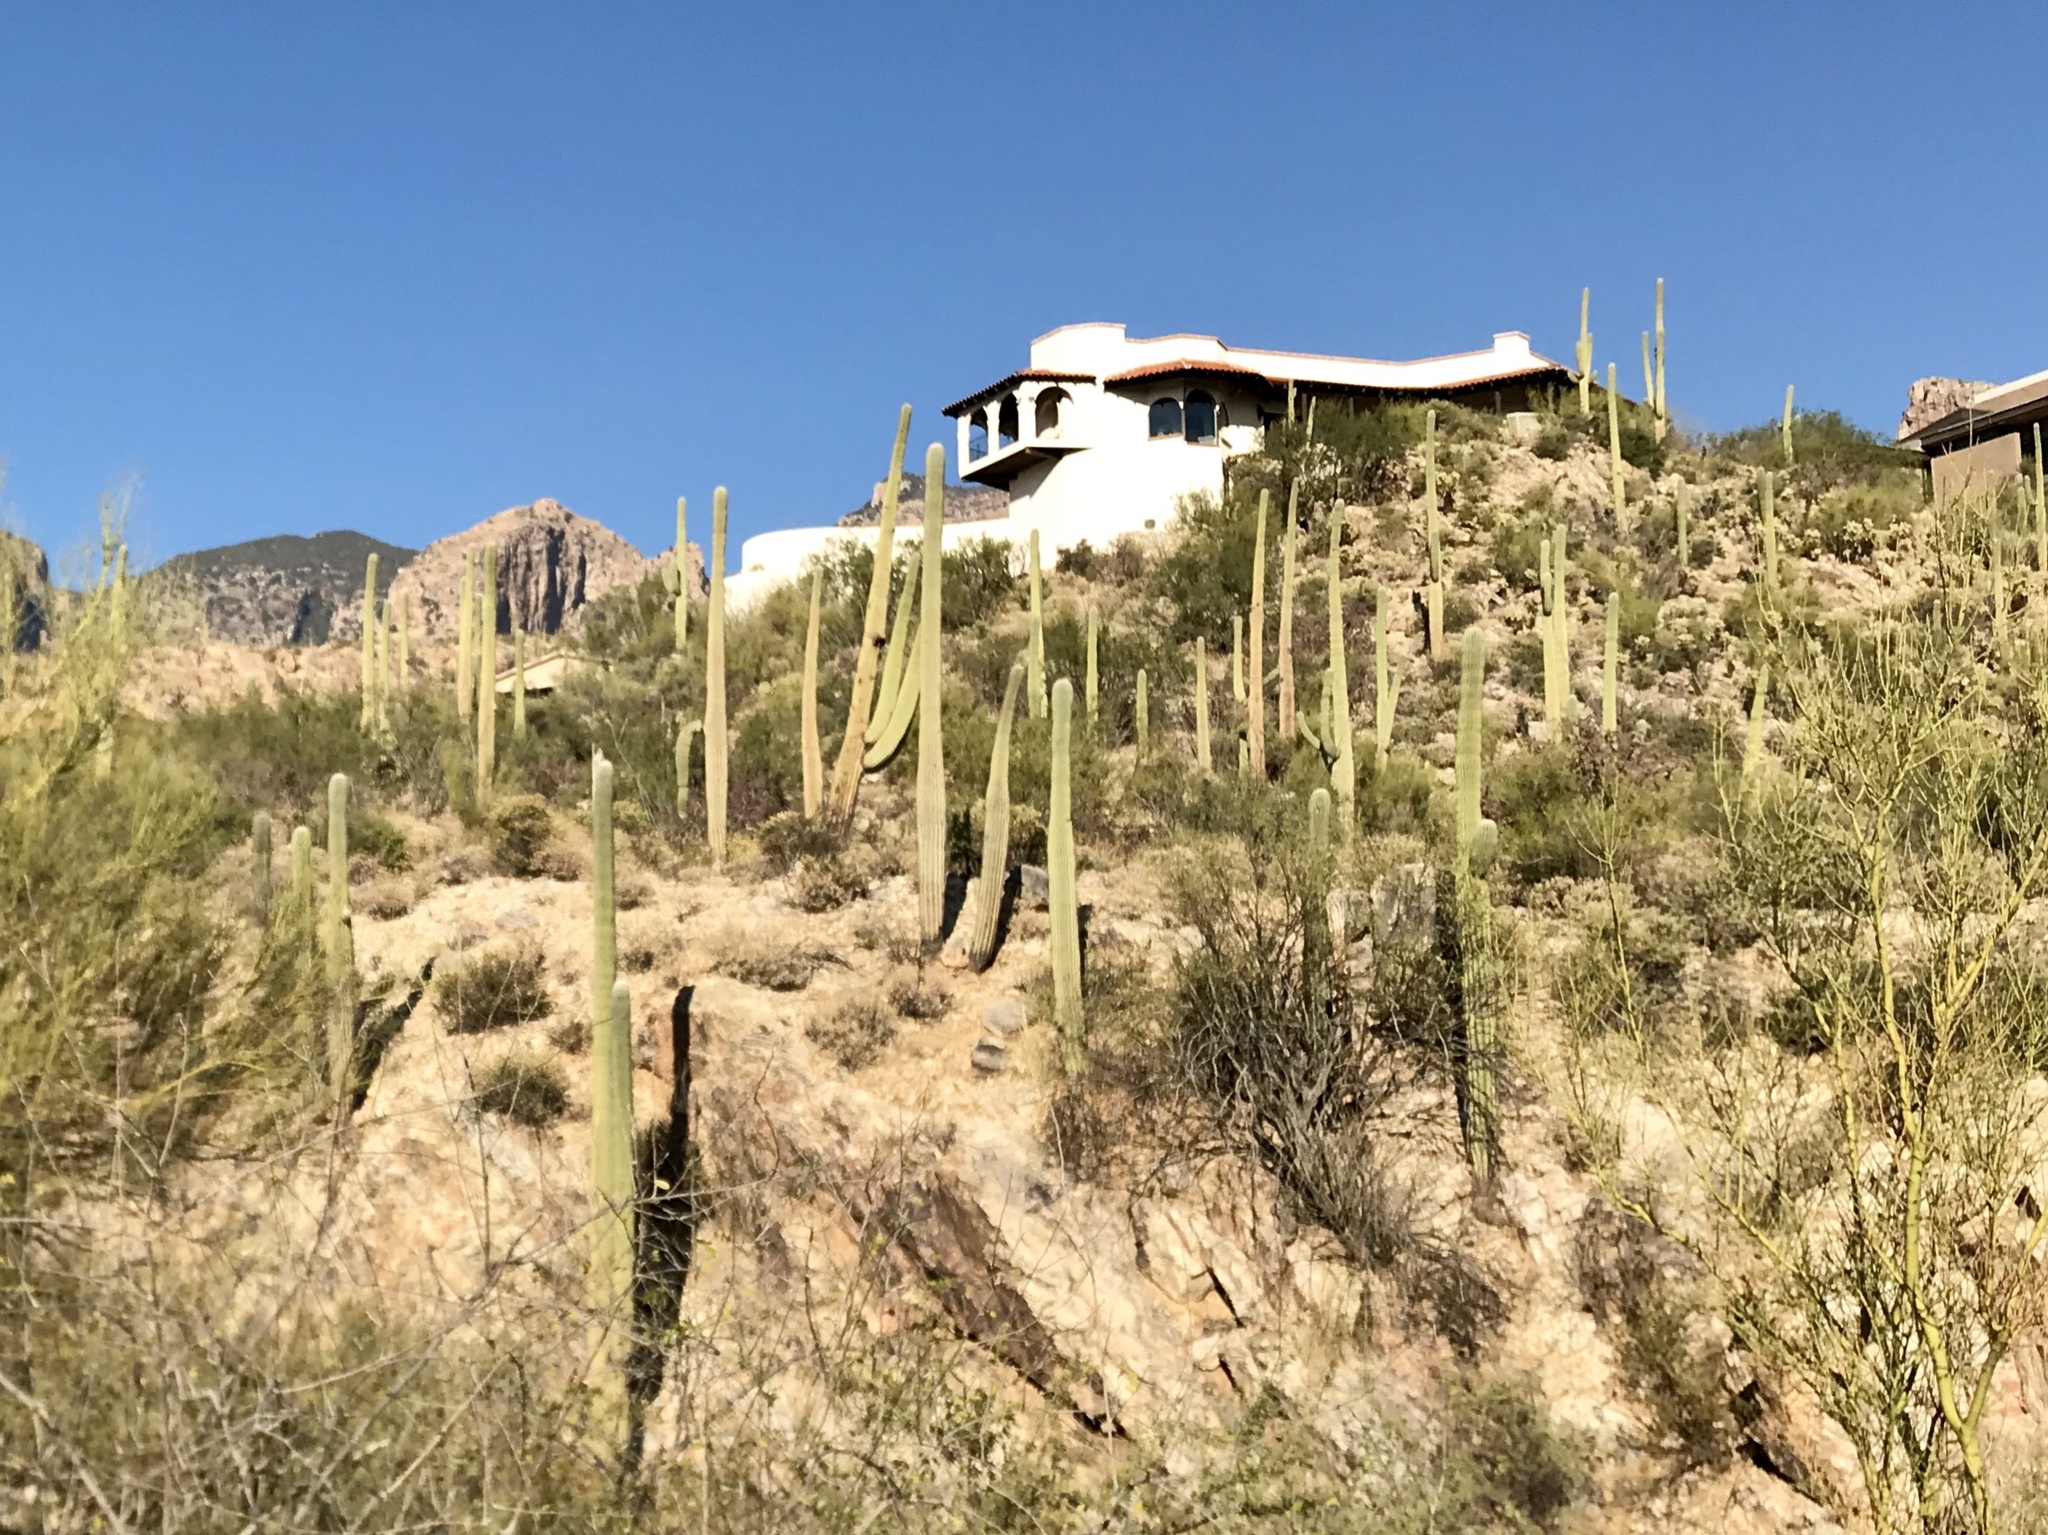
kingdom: Plantae
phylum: Tracheophyta
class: Magnoliopsida
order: Caryophyllales
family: Cactaceae
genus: Carnegiea
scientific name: Carnegiea gigantea
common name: Saguaro
